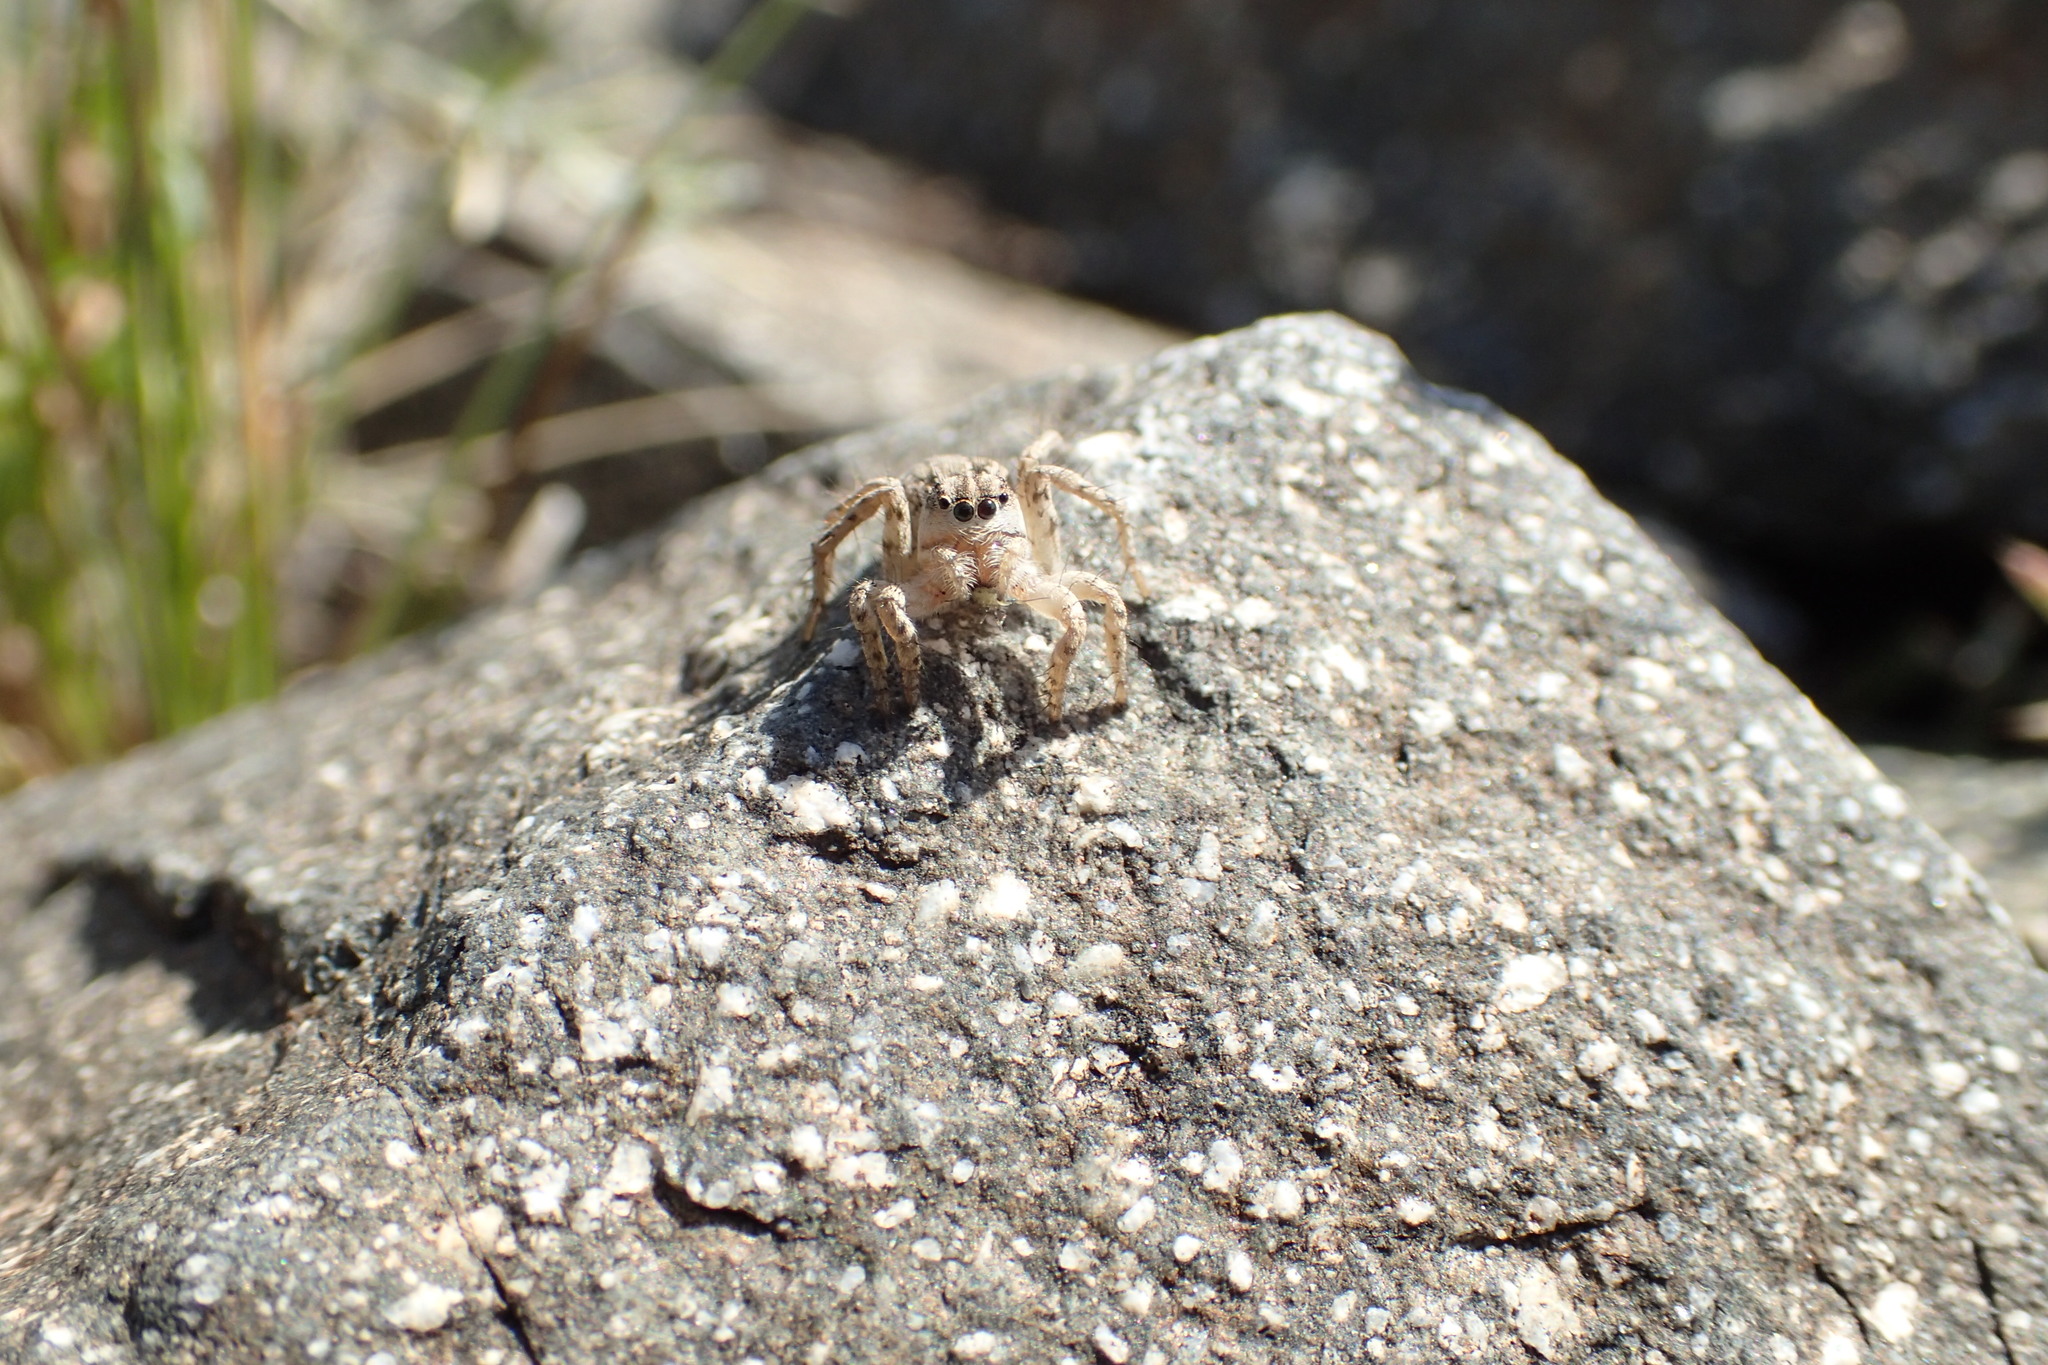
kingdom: Animalia
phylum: Arthropoda
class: Arachnida
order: Araneae
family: Salticidae
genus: Aelurillus
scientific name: Aelurillus m-nigrum
